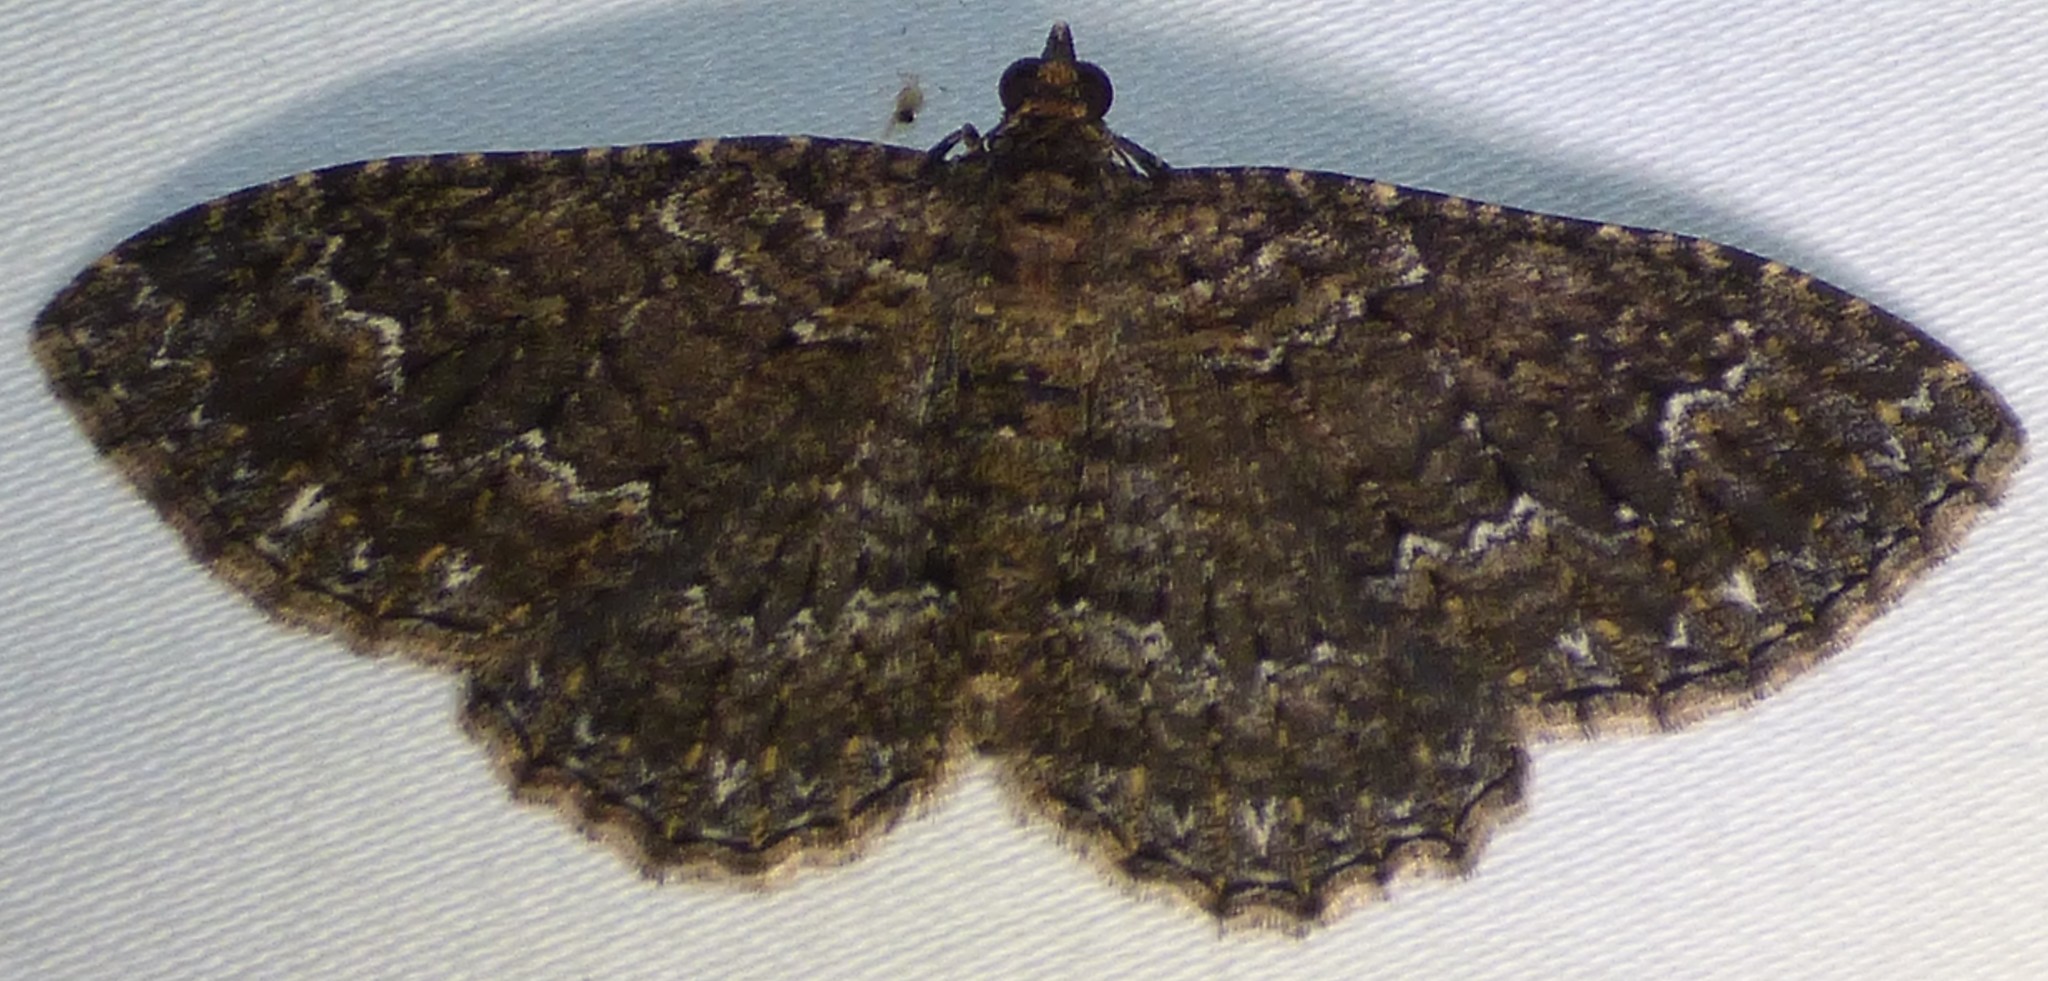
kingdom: Animalia
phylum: Arthropoda
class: Insecta
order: Lepidoptera
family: Geometridae
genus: Disclisioprocta
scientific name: Disclisioprocta stellata
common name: Somber carpet
